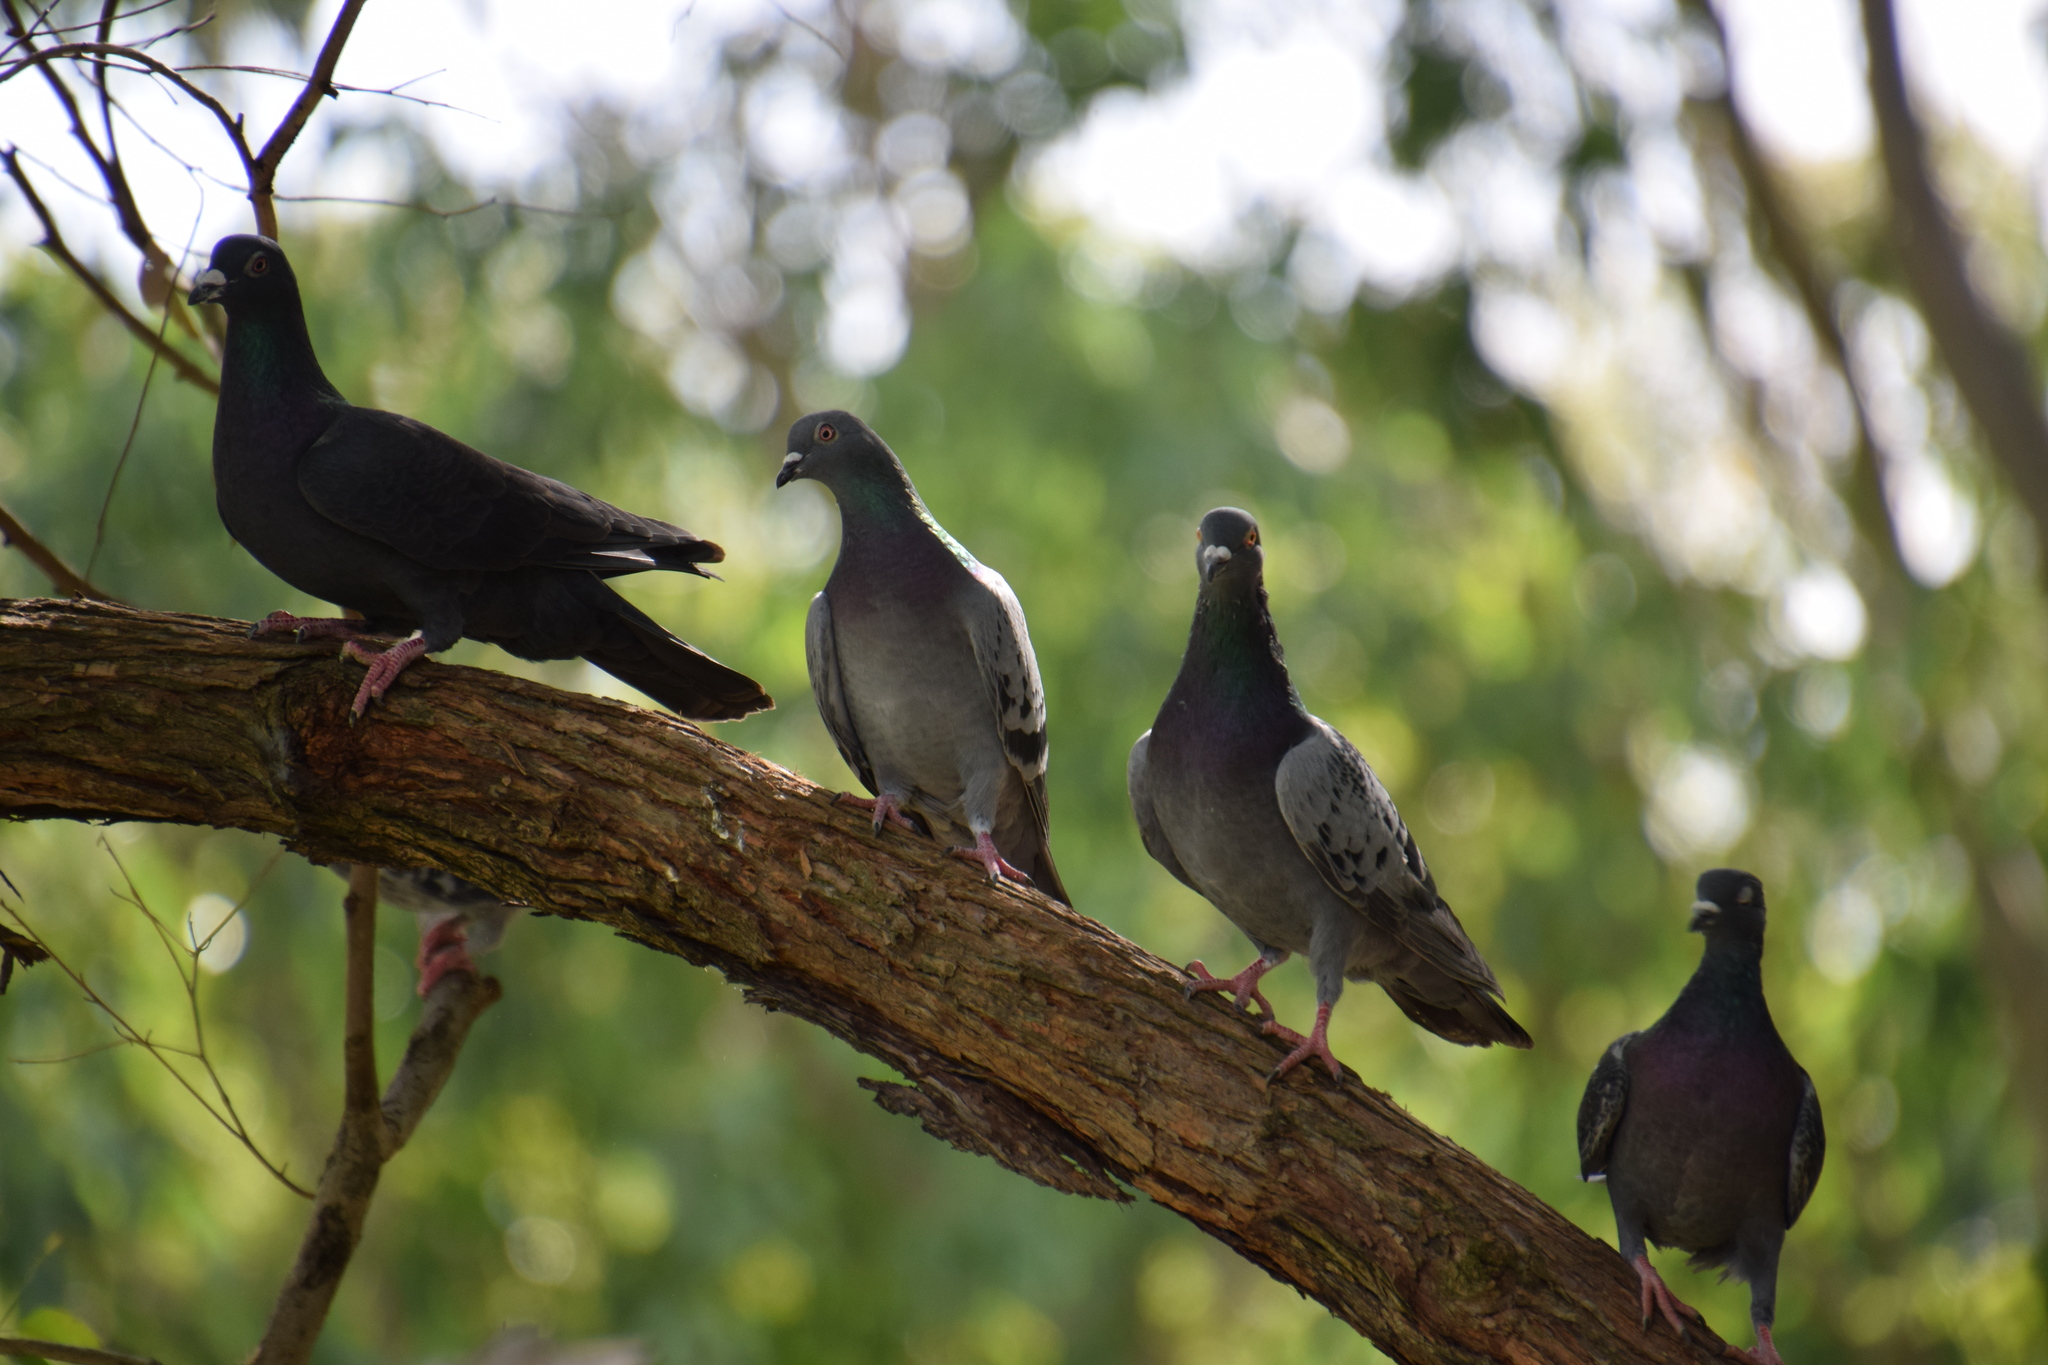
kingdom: Animalia
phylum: Chordata
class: Aves
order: Columbiformes
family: Columbidae
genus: Columba
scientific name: Columba livia
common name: Rock pigeon
